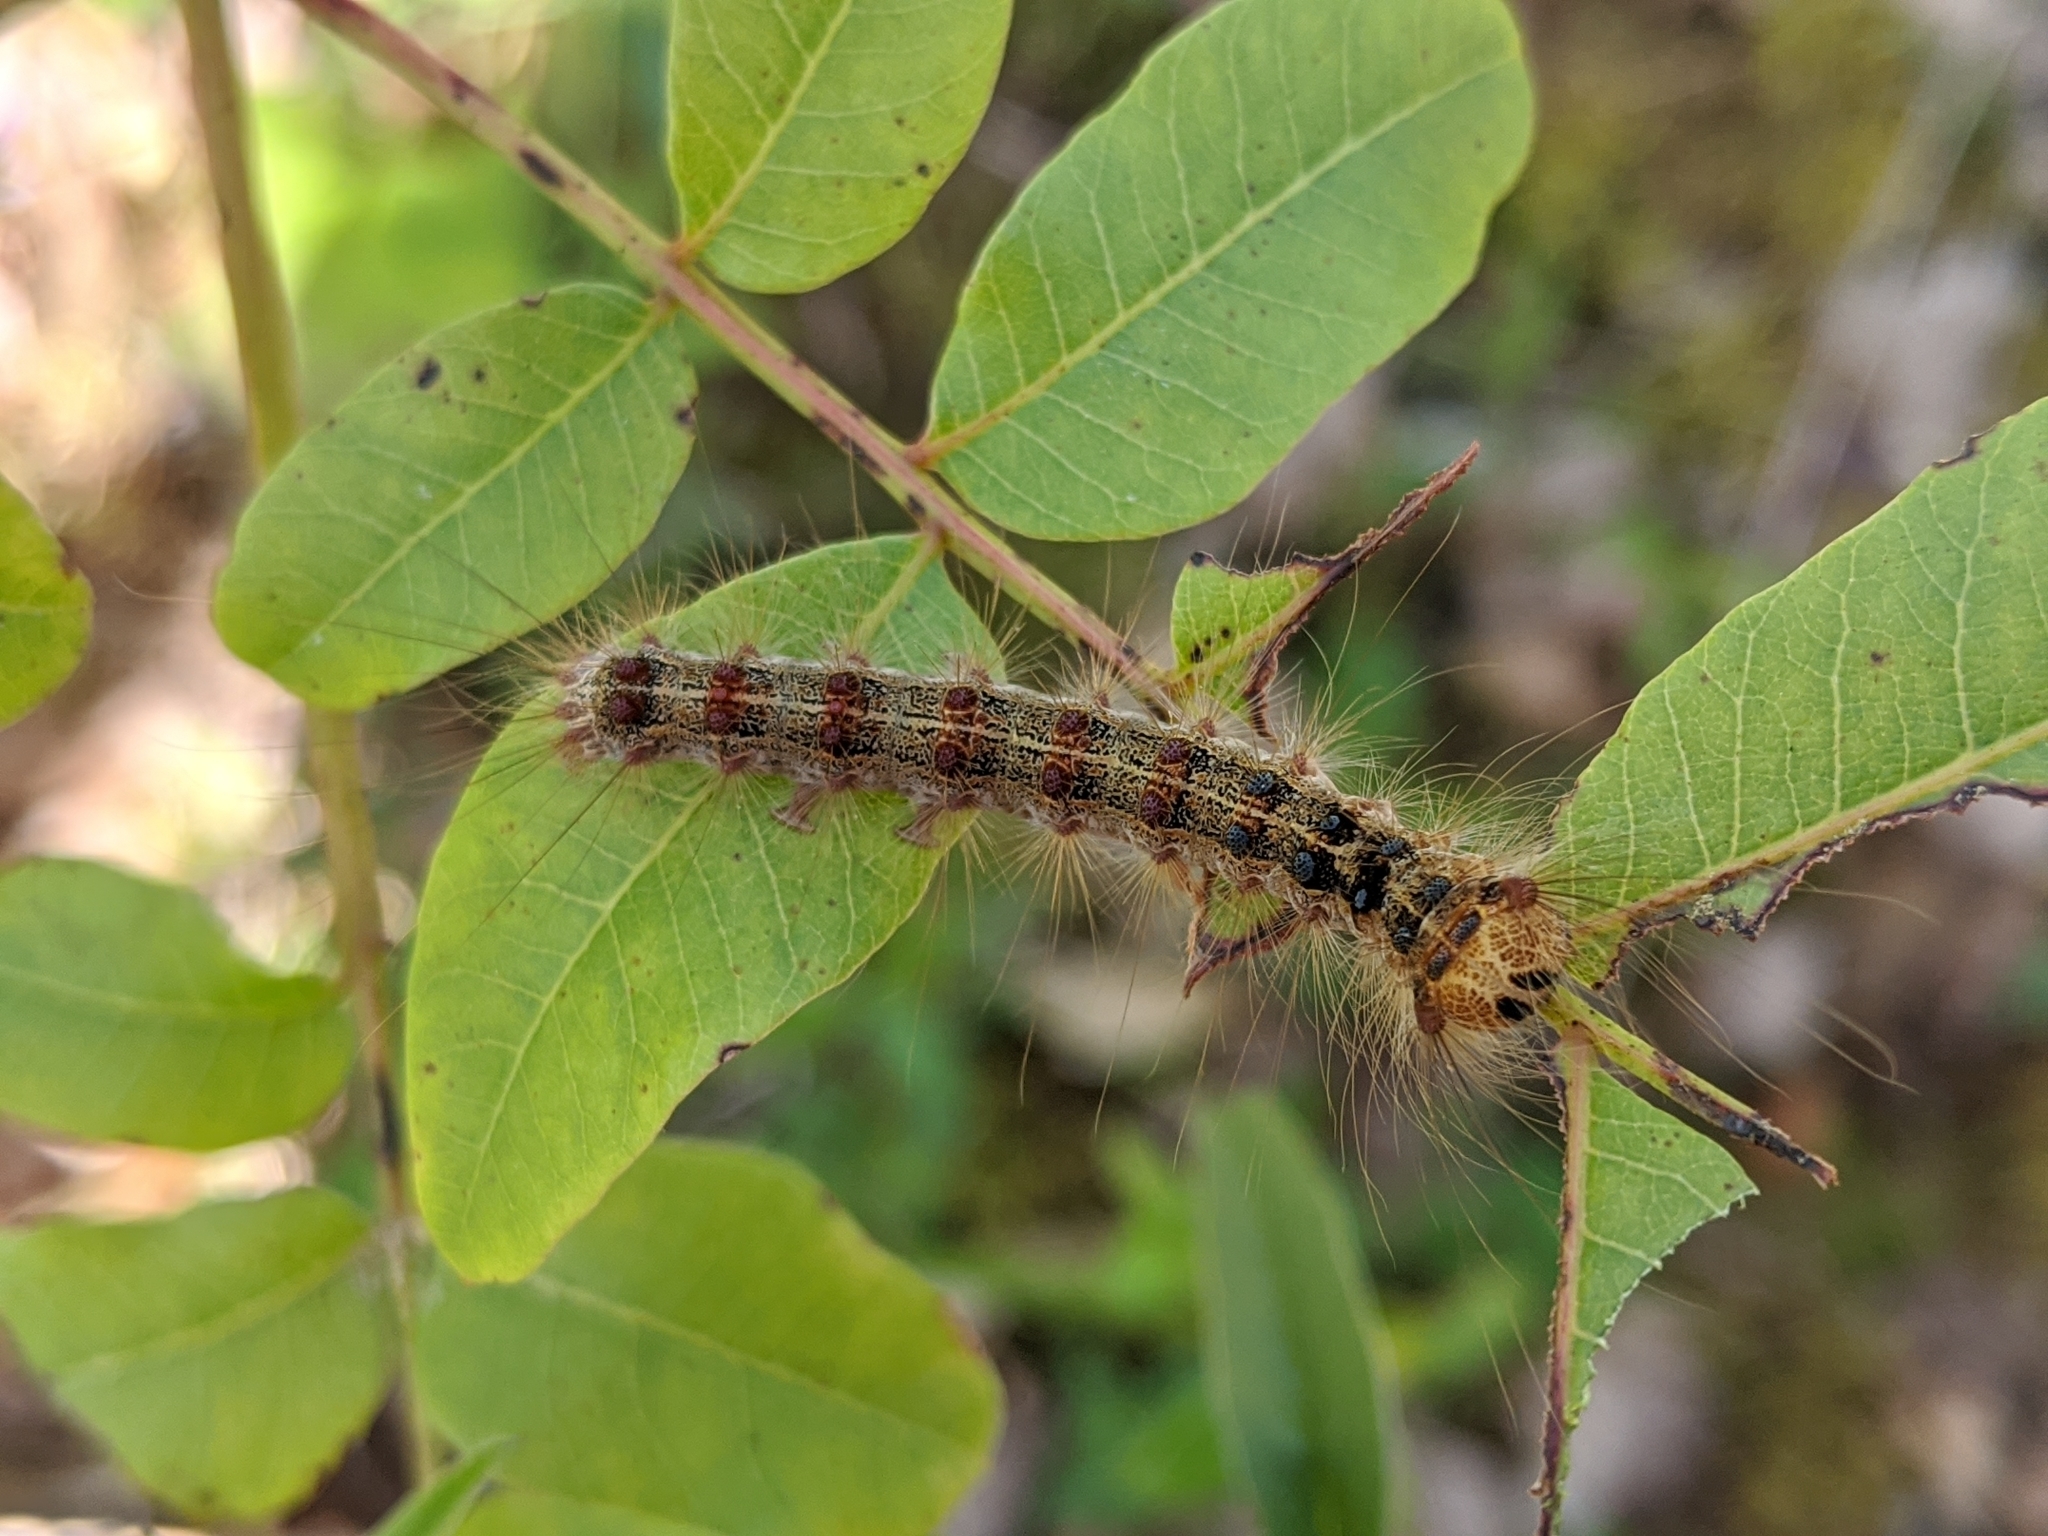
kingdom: Animalia
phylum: Arthropoda
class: Insecta
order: Lepidoptera
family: Erebidae
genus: Lymantria
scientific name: Lymantria dispar
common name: Gypsy moth
